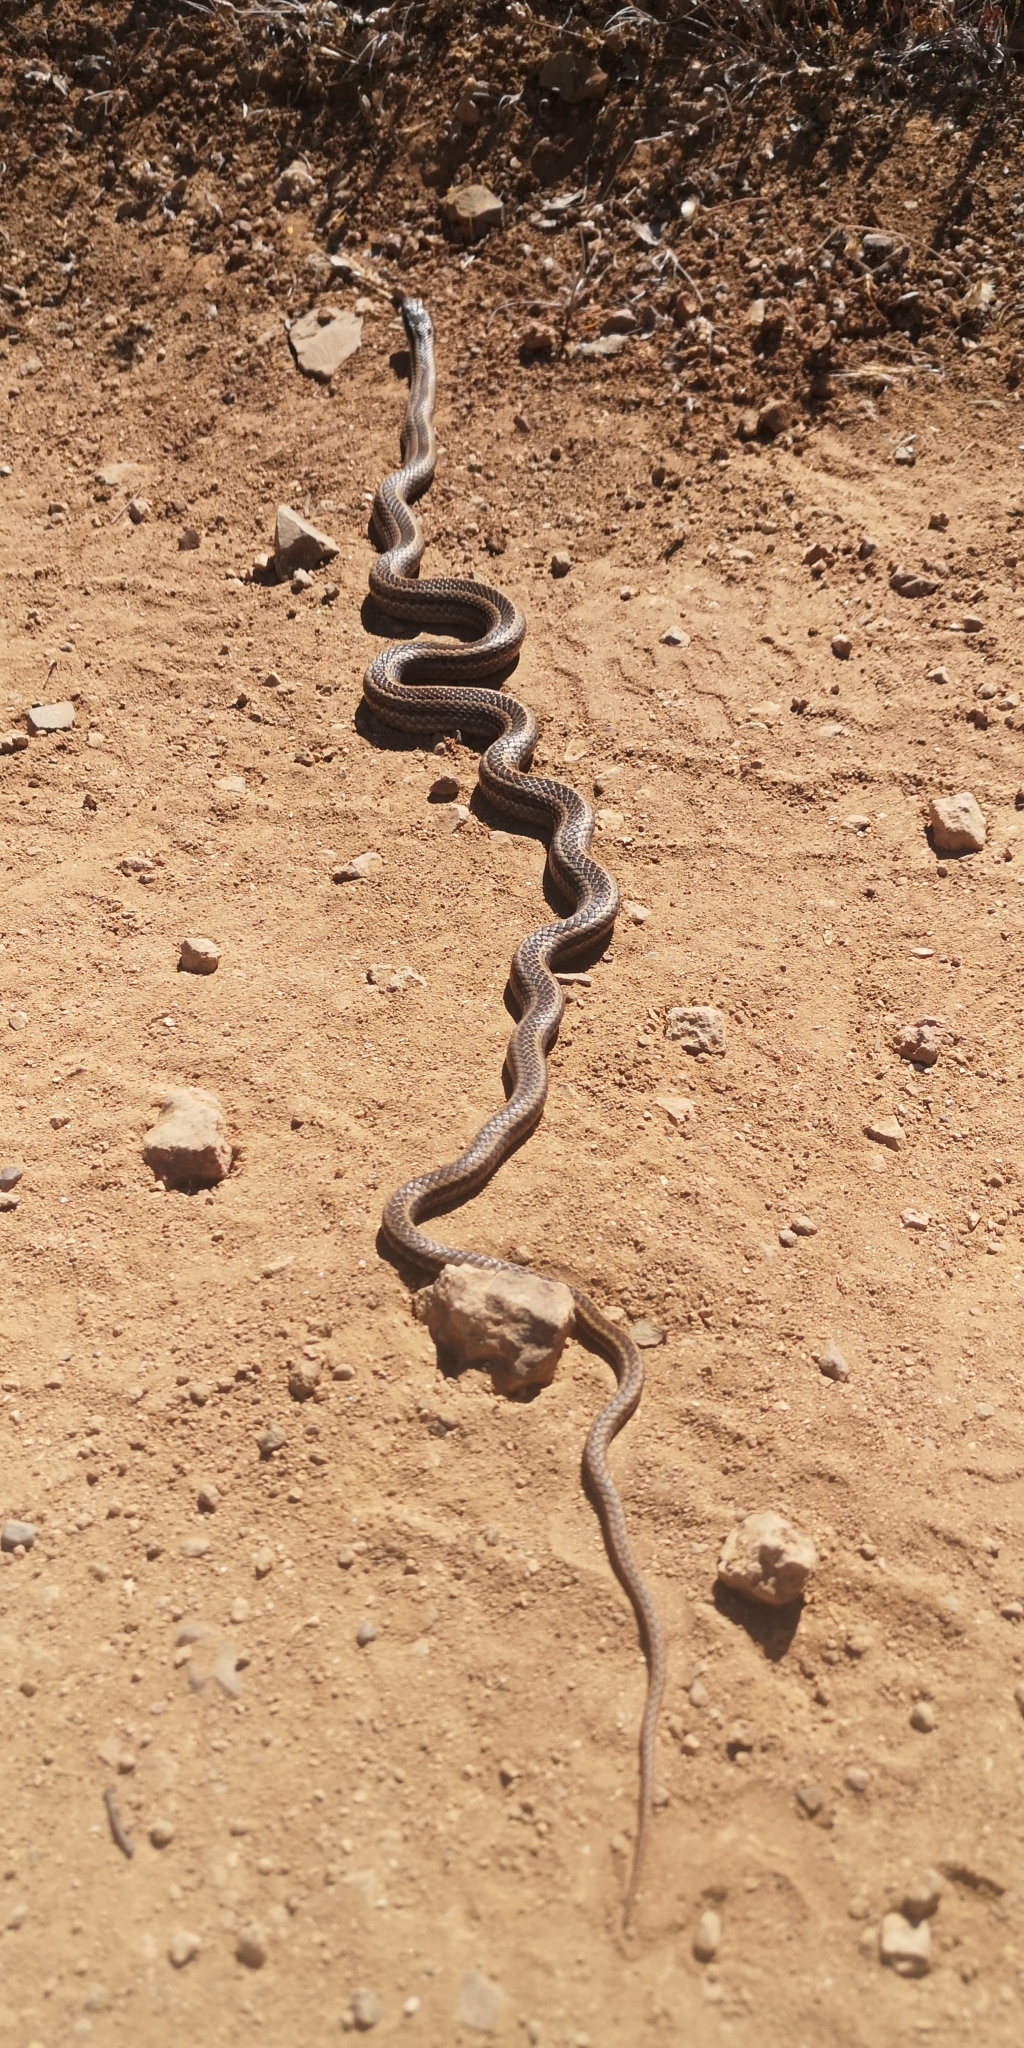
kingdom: Animalia
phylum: Chordata
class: Squamata
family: Colubridae
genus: Philodryas
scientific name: Philodryas chamissonis
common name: Chilean green racer
